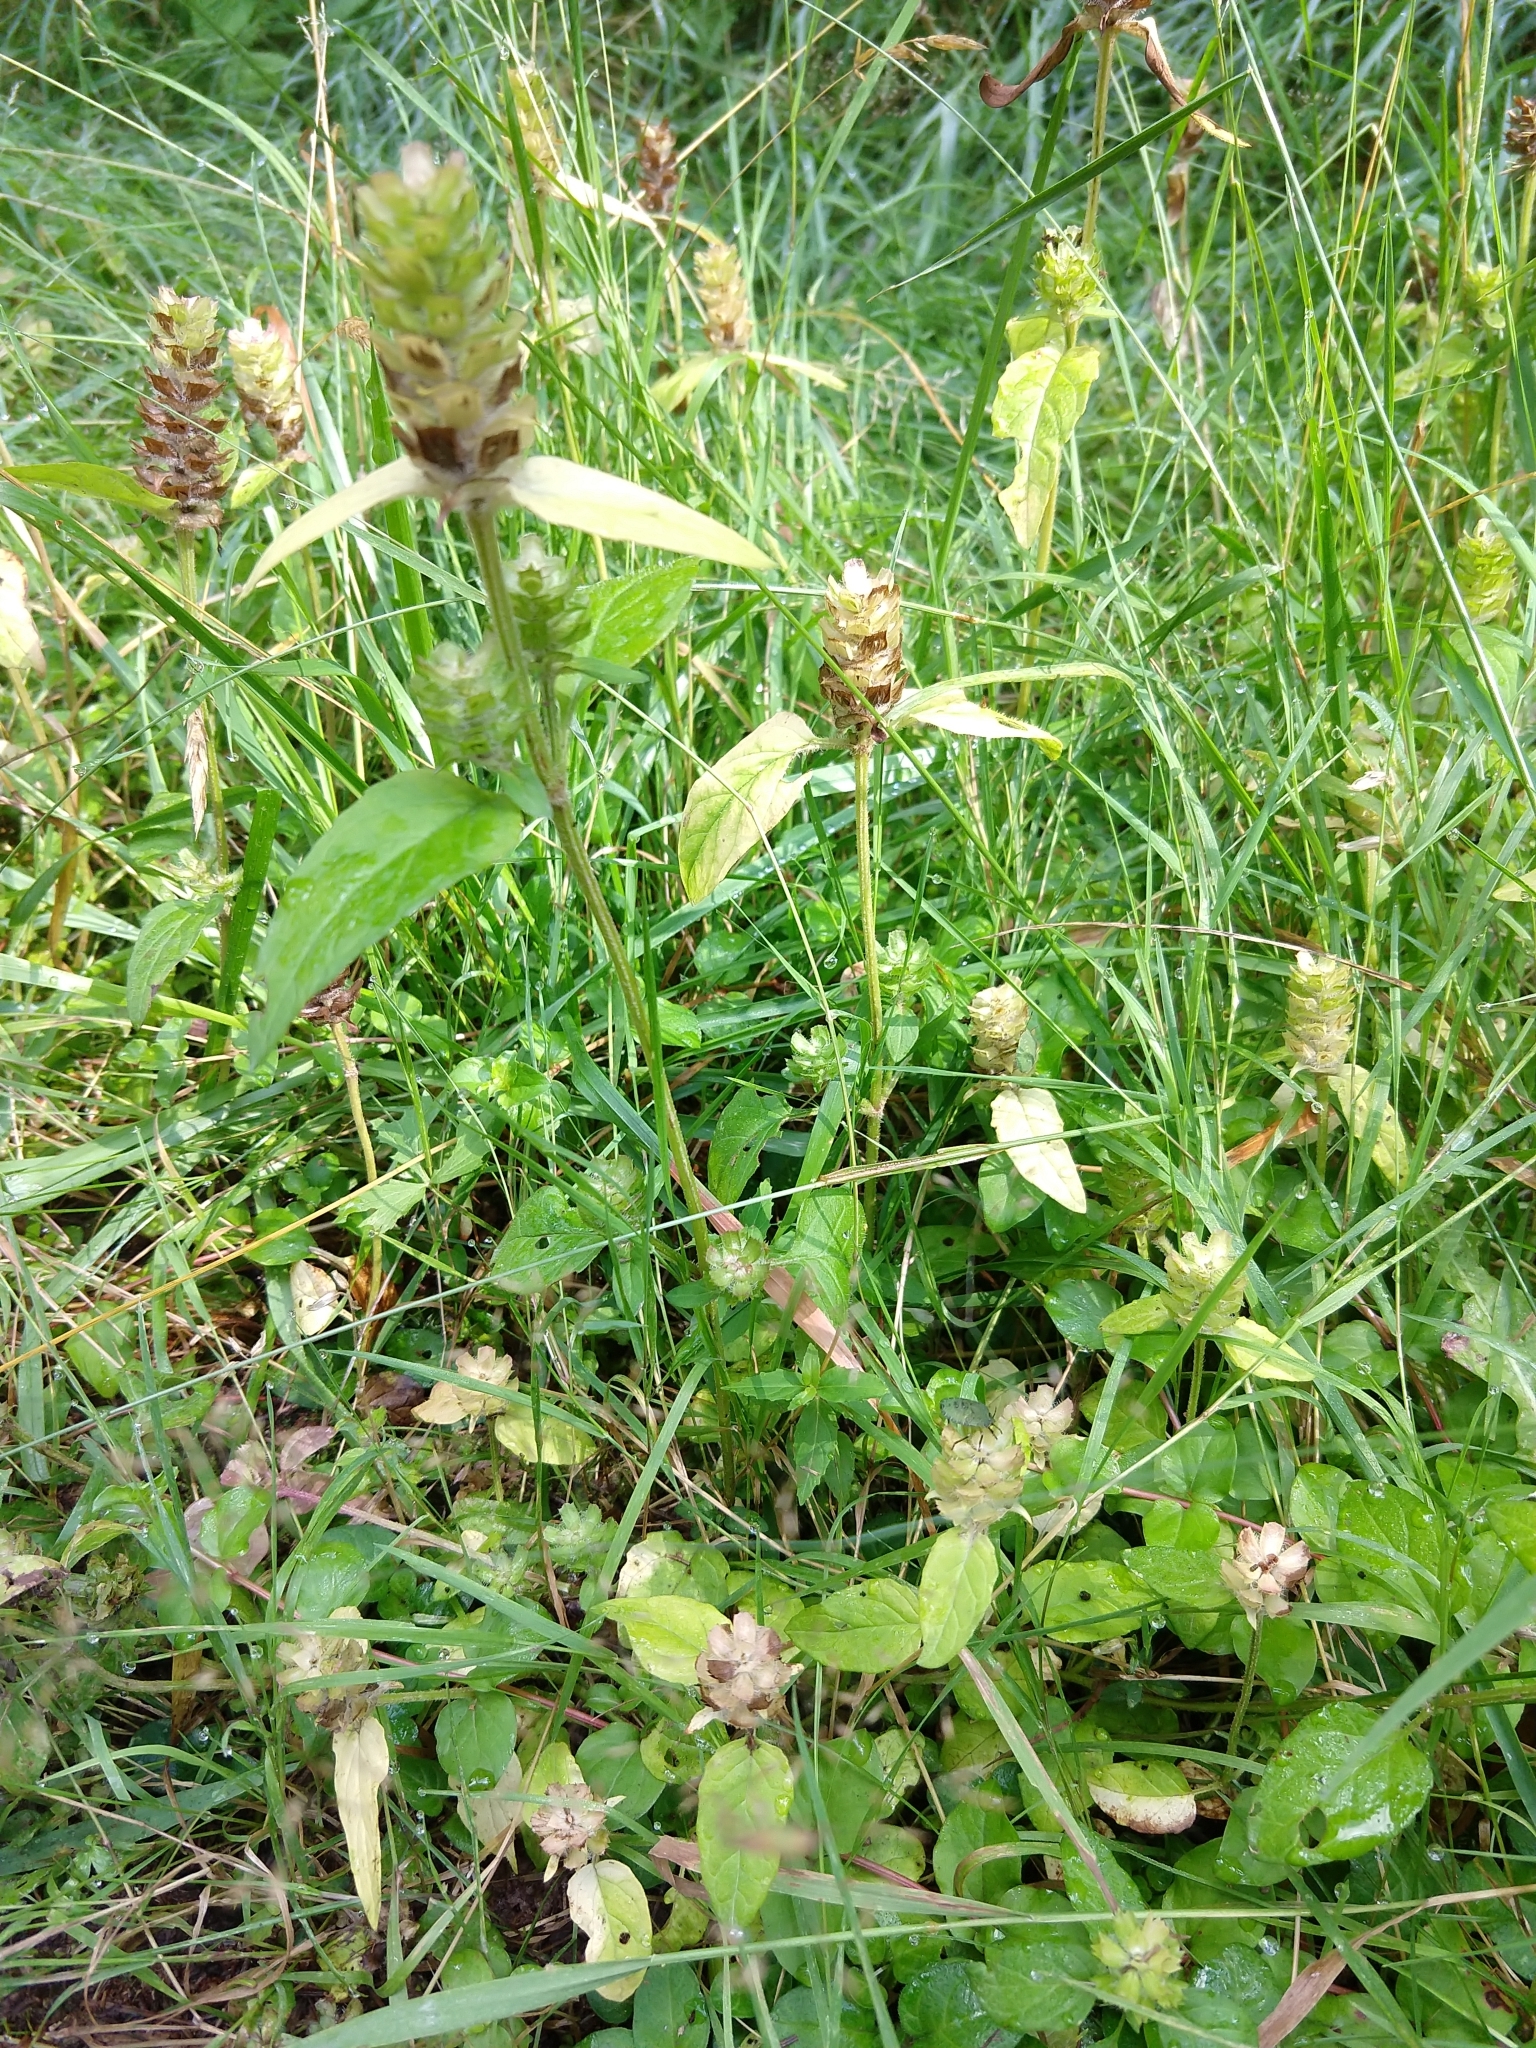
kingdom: Plantae
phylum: Tracheophyta
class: Magnoliopsida
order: Lamiales
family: Lamiaceae
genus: Prunella
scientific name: Prunella vulgaris
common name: Heal-all
